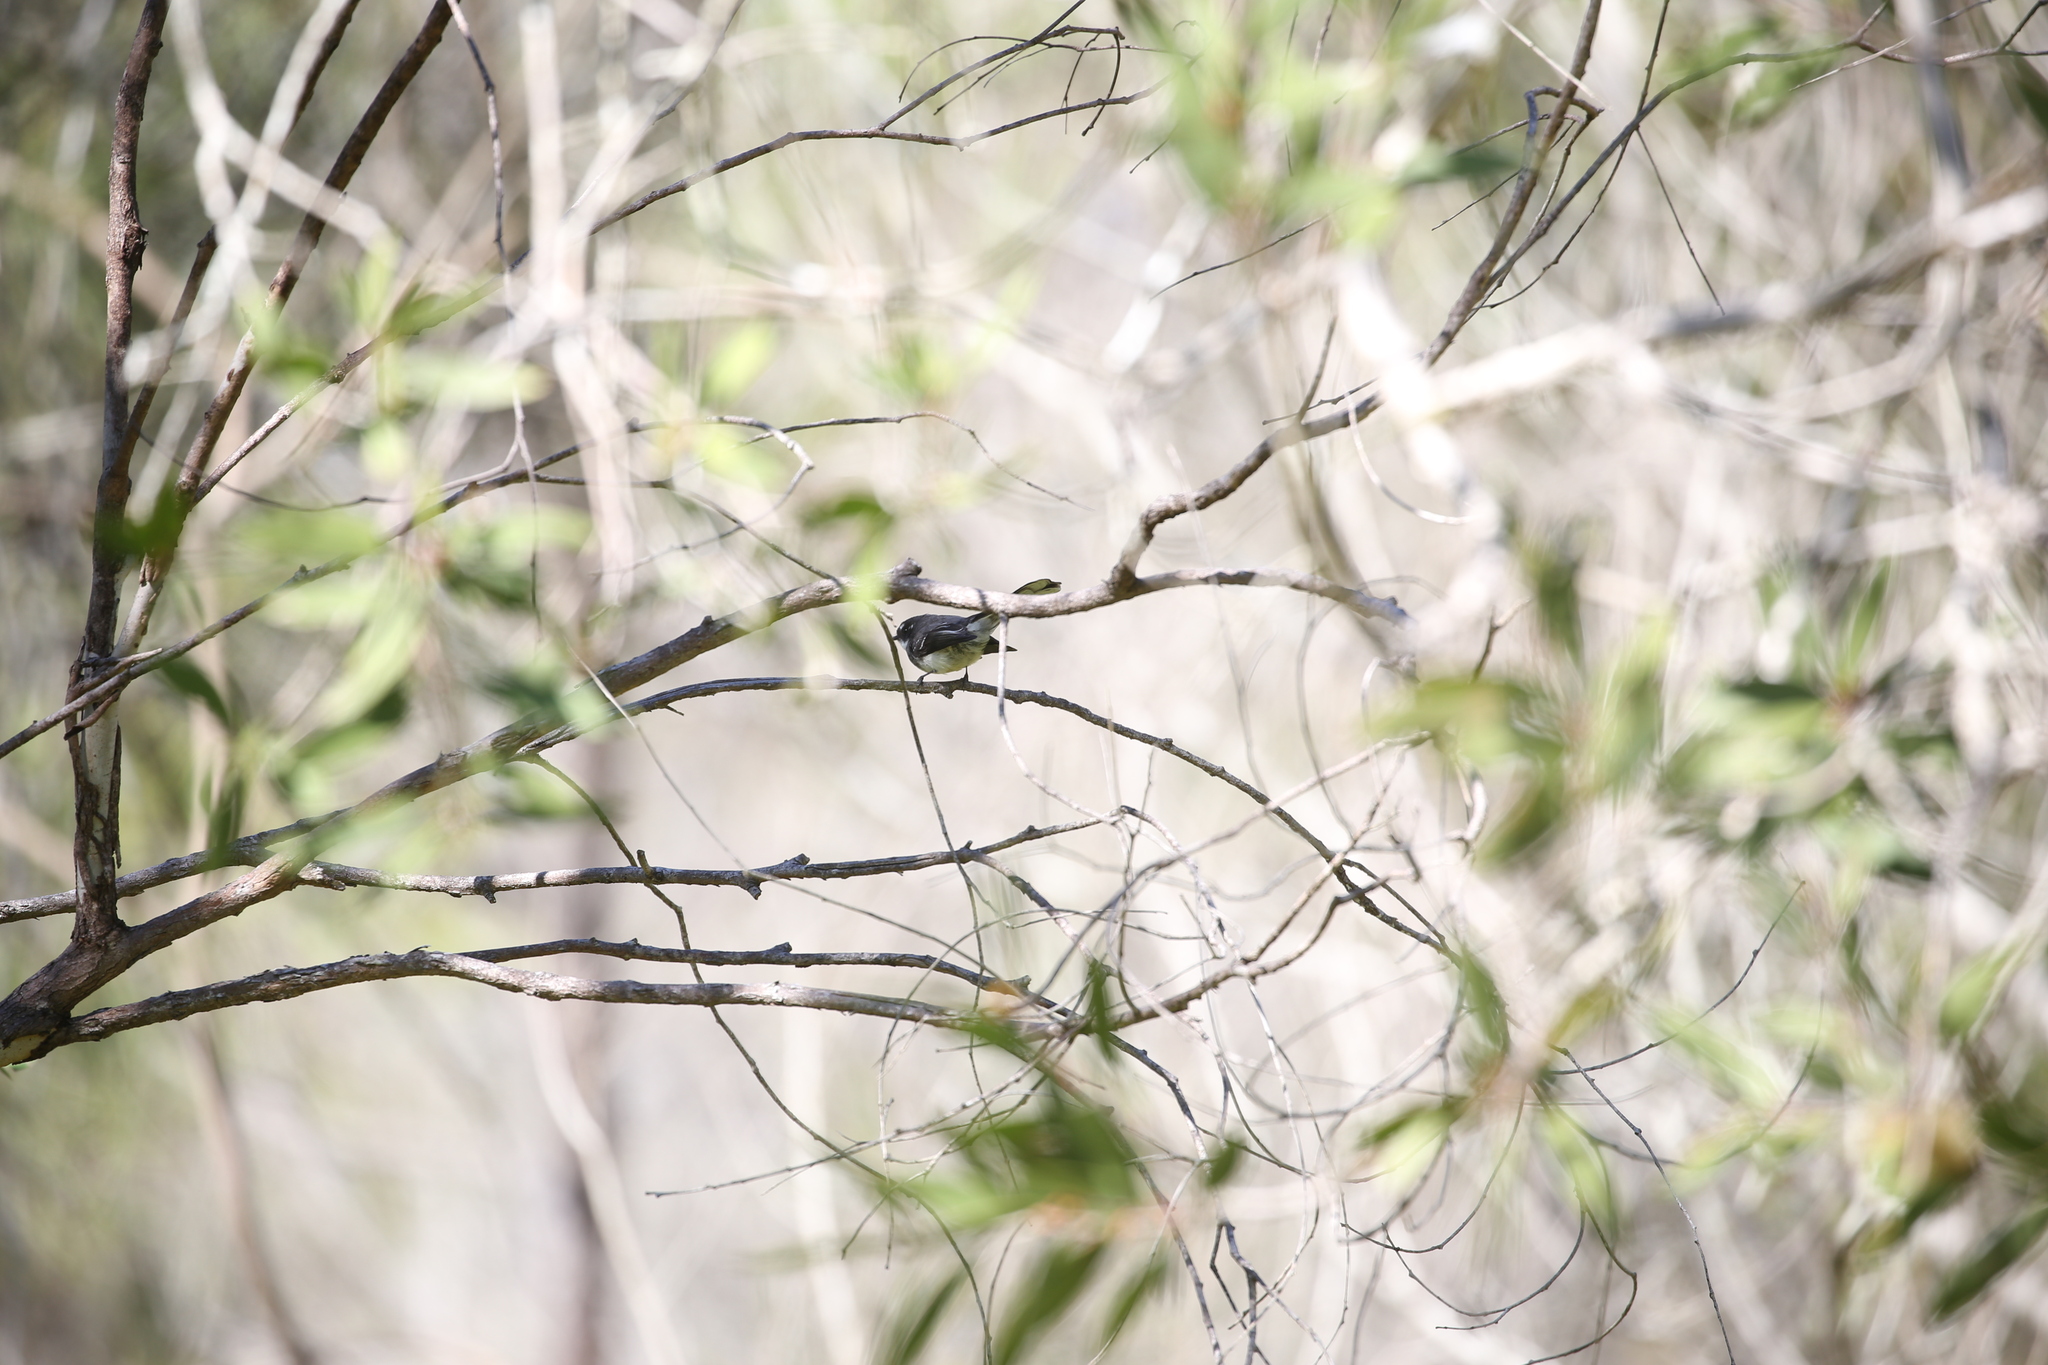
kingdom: Animalia
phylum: Chordata
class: Aves
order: Passeriformes
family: Rhipiduridae
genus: Rhipidura
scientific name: Rhipidura albiscapa
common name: Grey fantail
